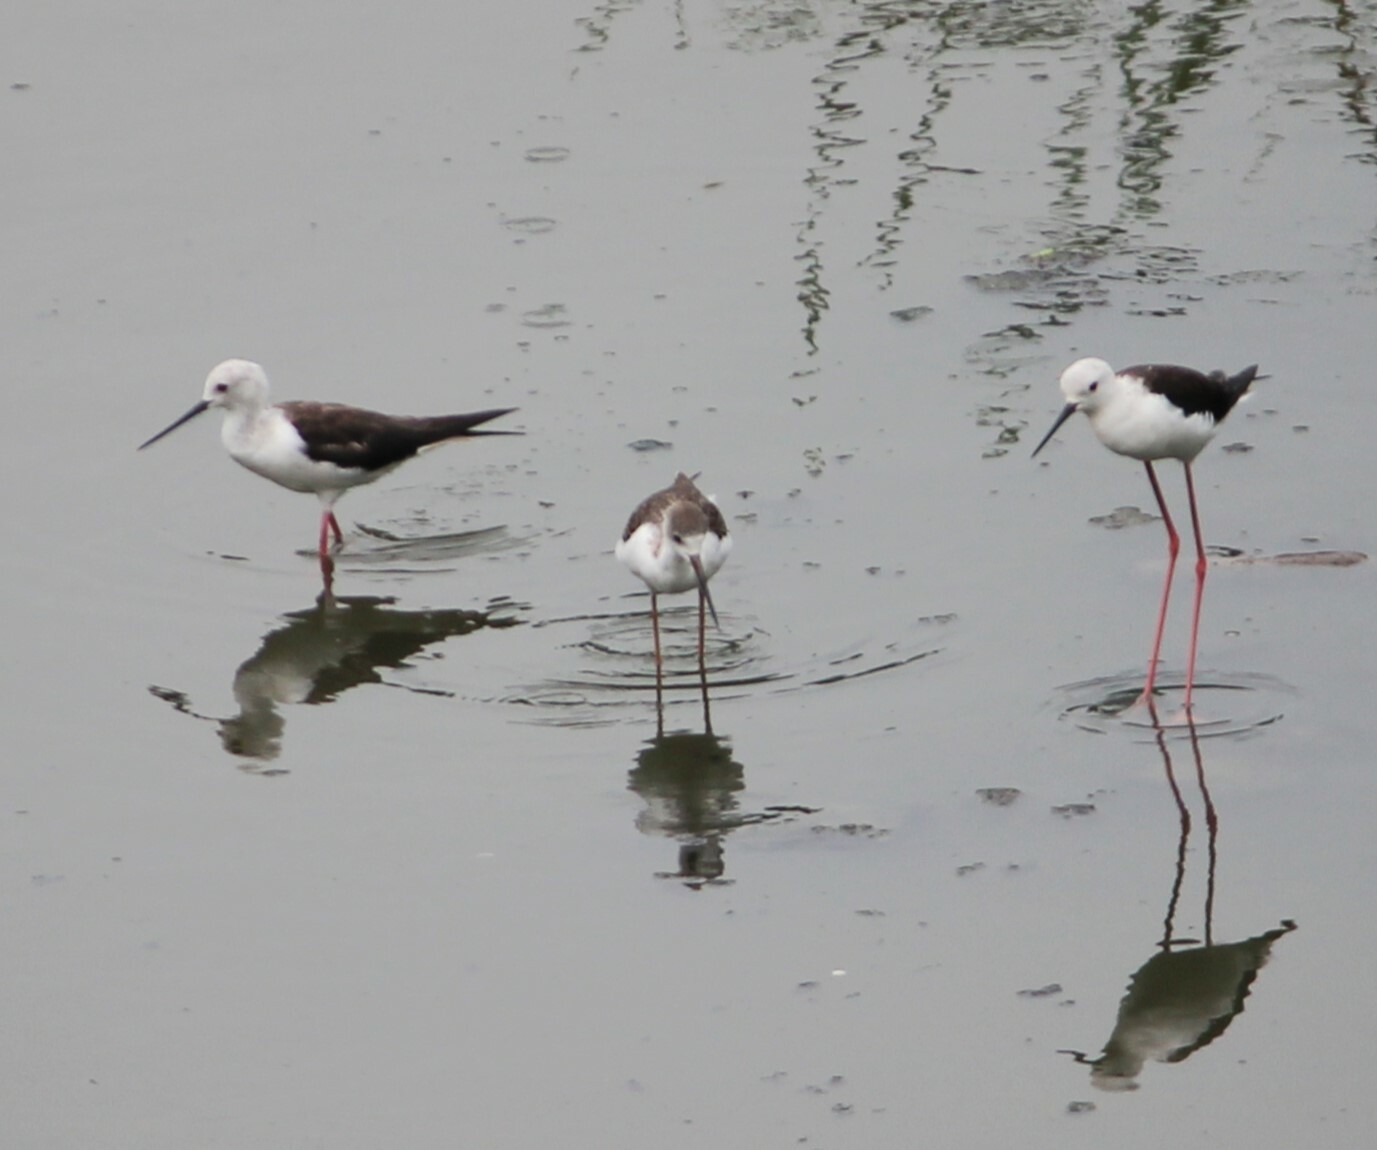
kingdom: Animalia
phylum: Chordata
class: Aves
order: Charadriiformes
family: Recurvirostridae
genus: Himantopus
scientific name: Himantopus himantopus
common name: Black-winged stilt
